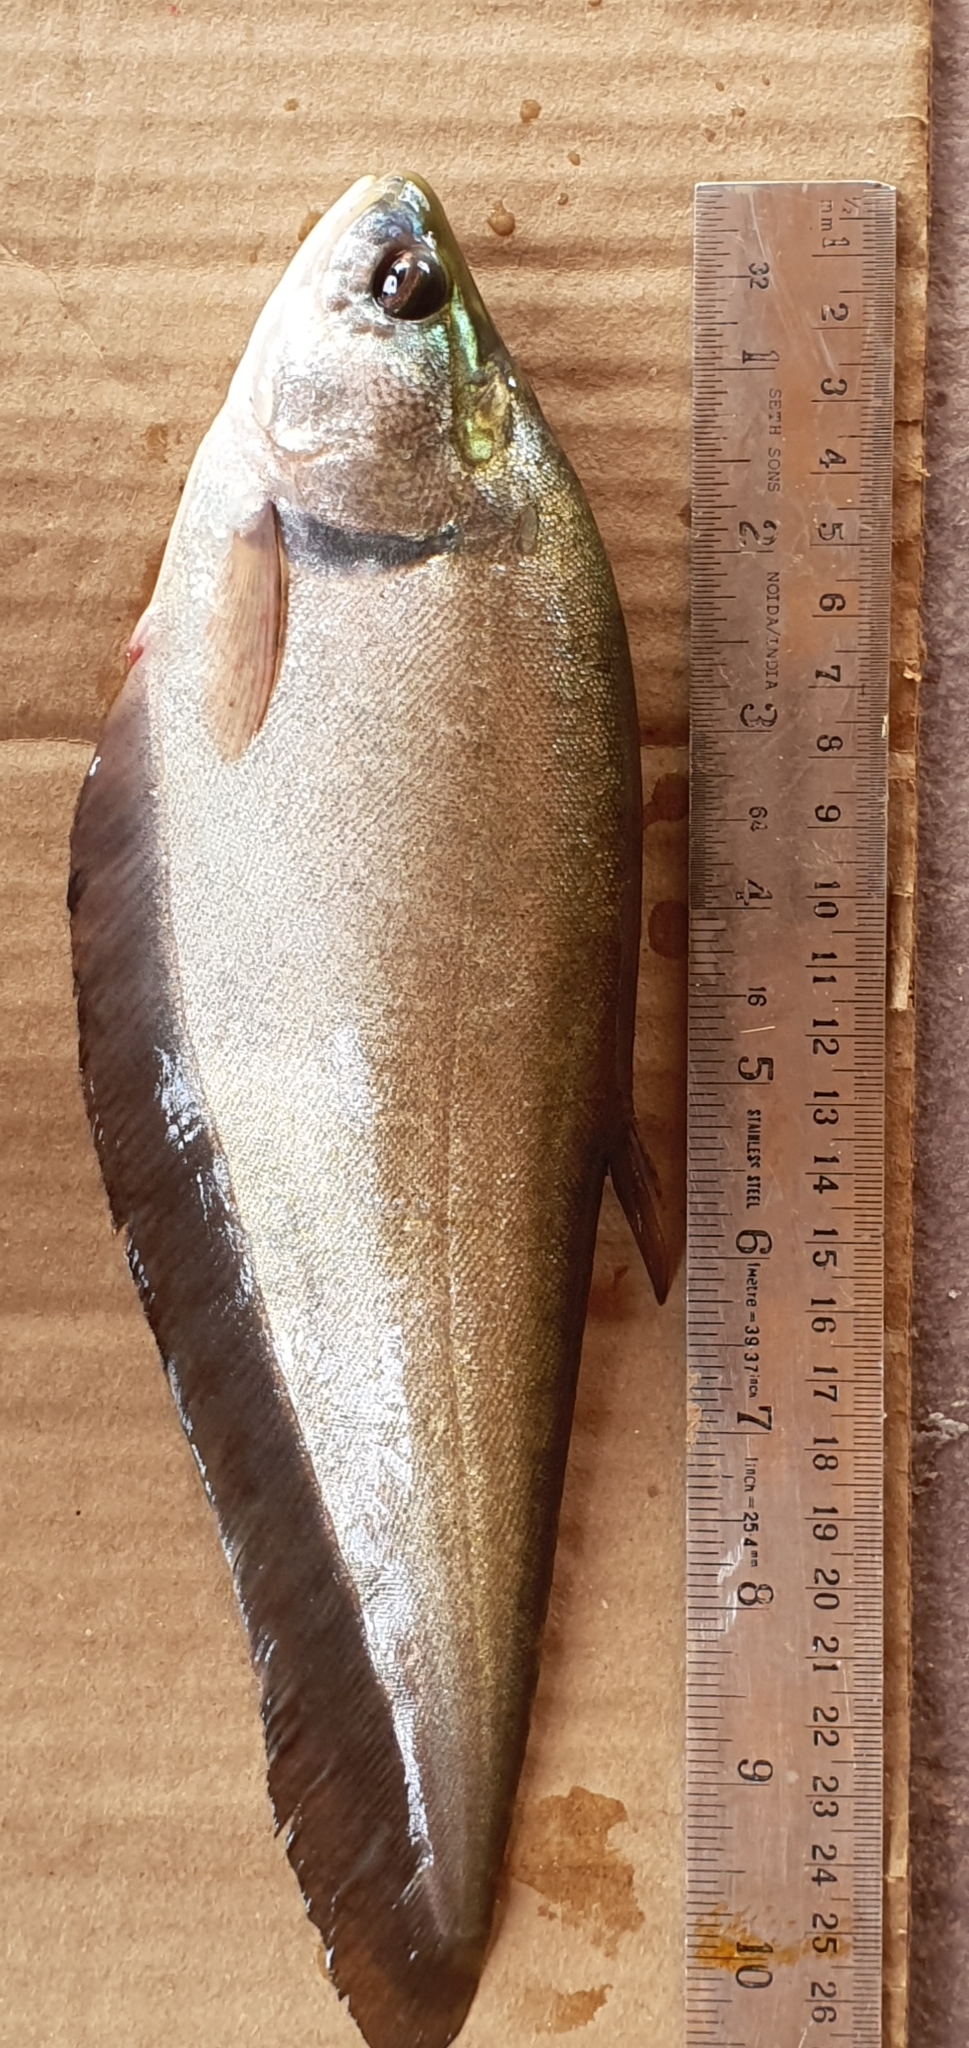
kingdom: Animalia
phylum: Chordata
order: Osteoglossiformes
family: Notopteridae
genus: Notopterus
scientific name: Notopterus
